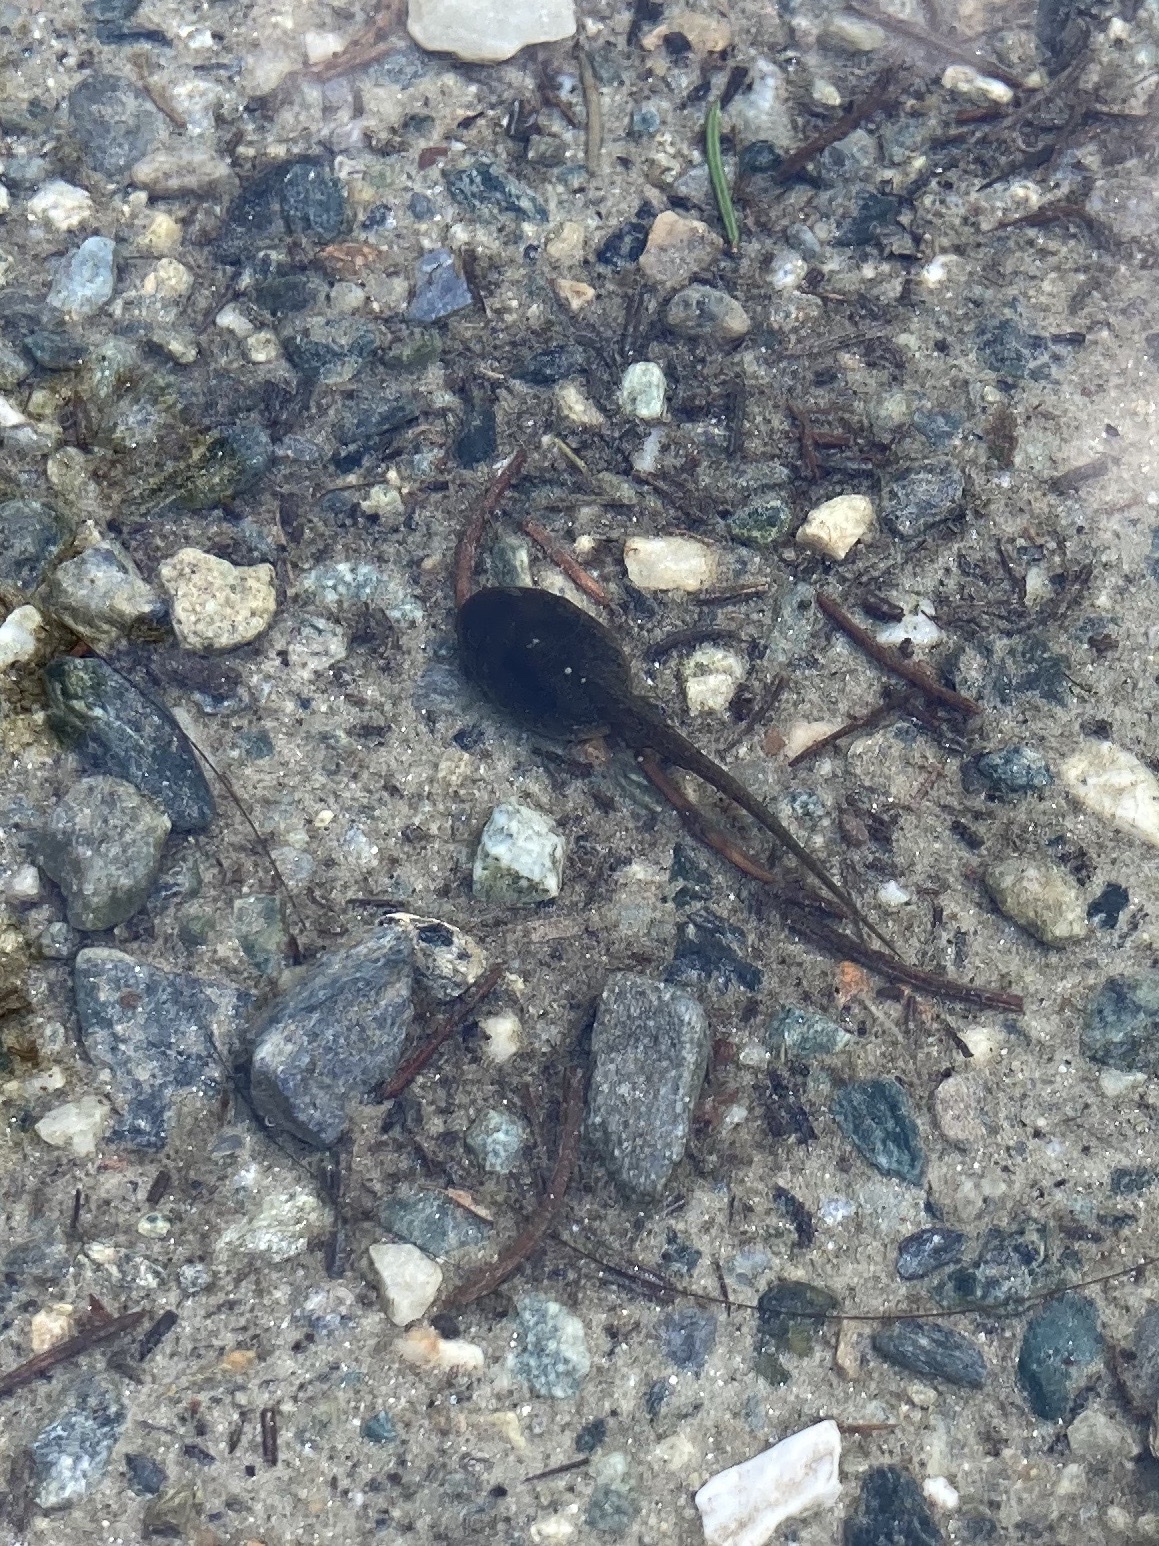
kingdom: Animalia
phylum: Chordata
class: Amphibia
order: Anura
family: Ranidae
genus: Rana
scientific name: Rana temporaria
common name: Common frog
